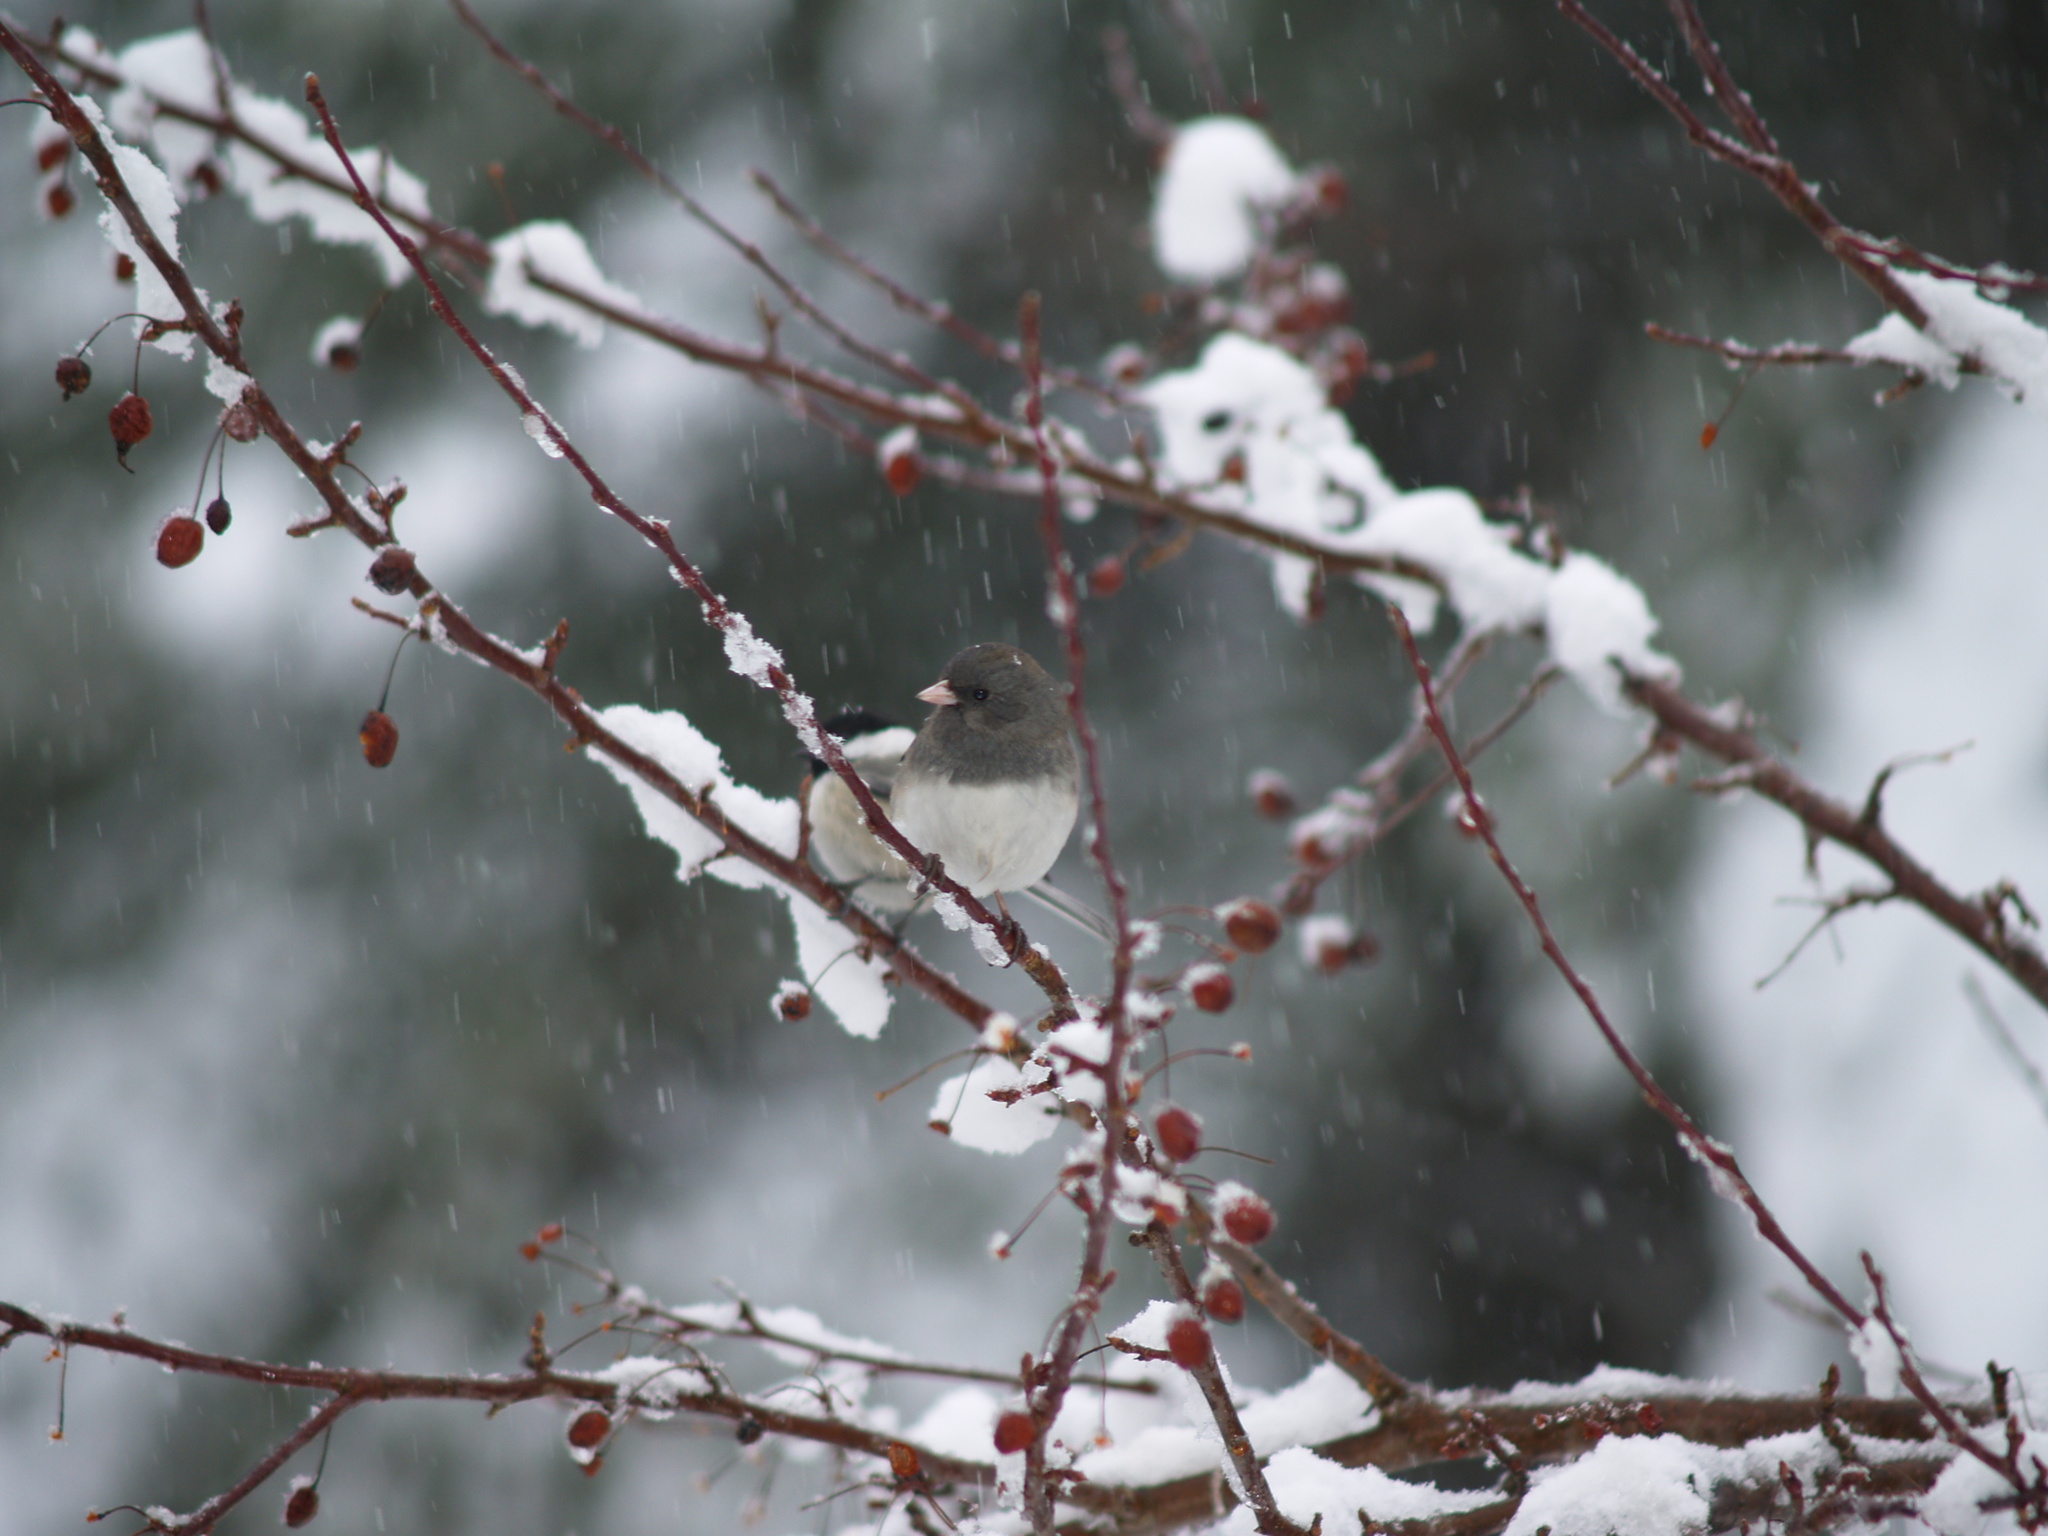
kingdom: Animalia
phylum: Chordata
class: Aves
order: Passeriformes
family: Passerellidae
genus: Junco
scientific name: Junco hyemalis
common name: Dark-eyed junco
